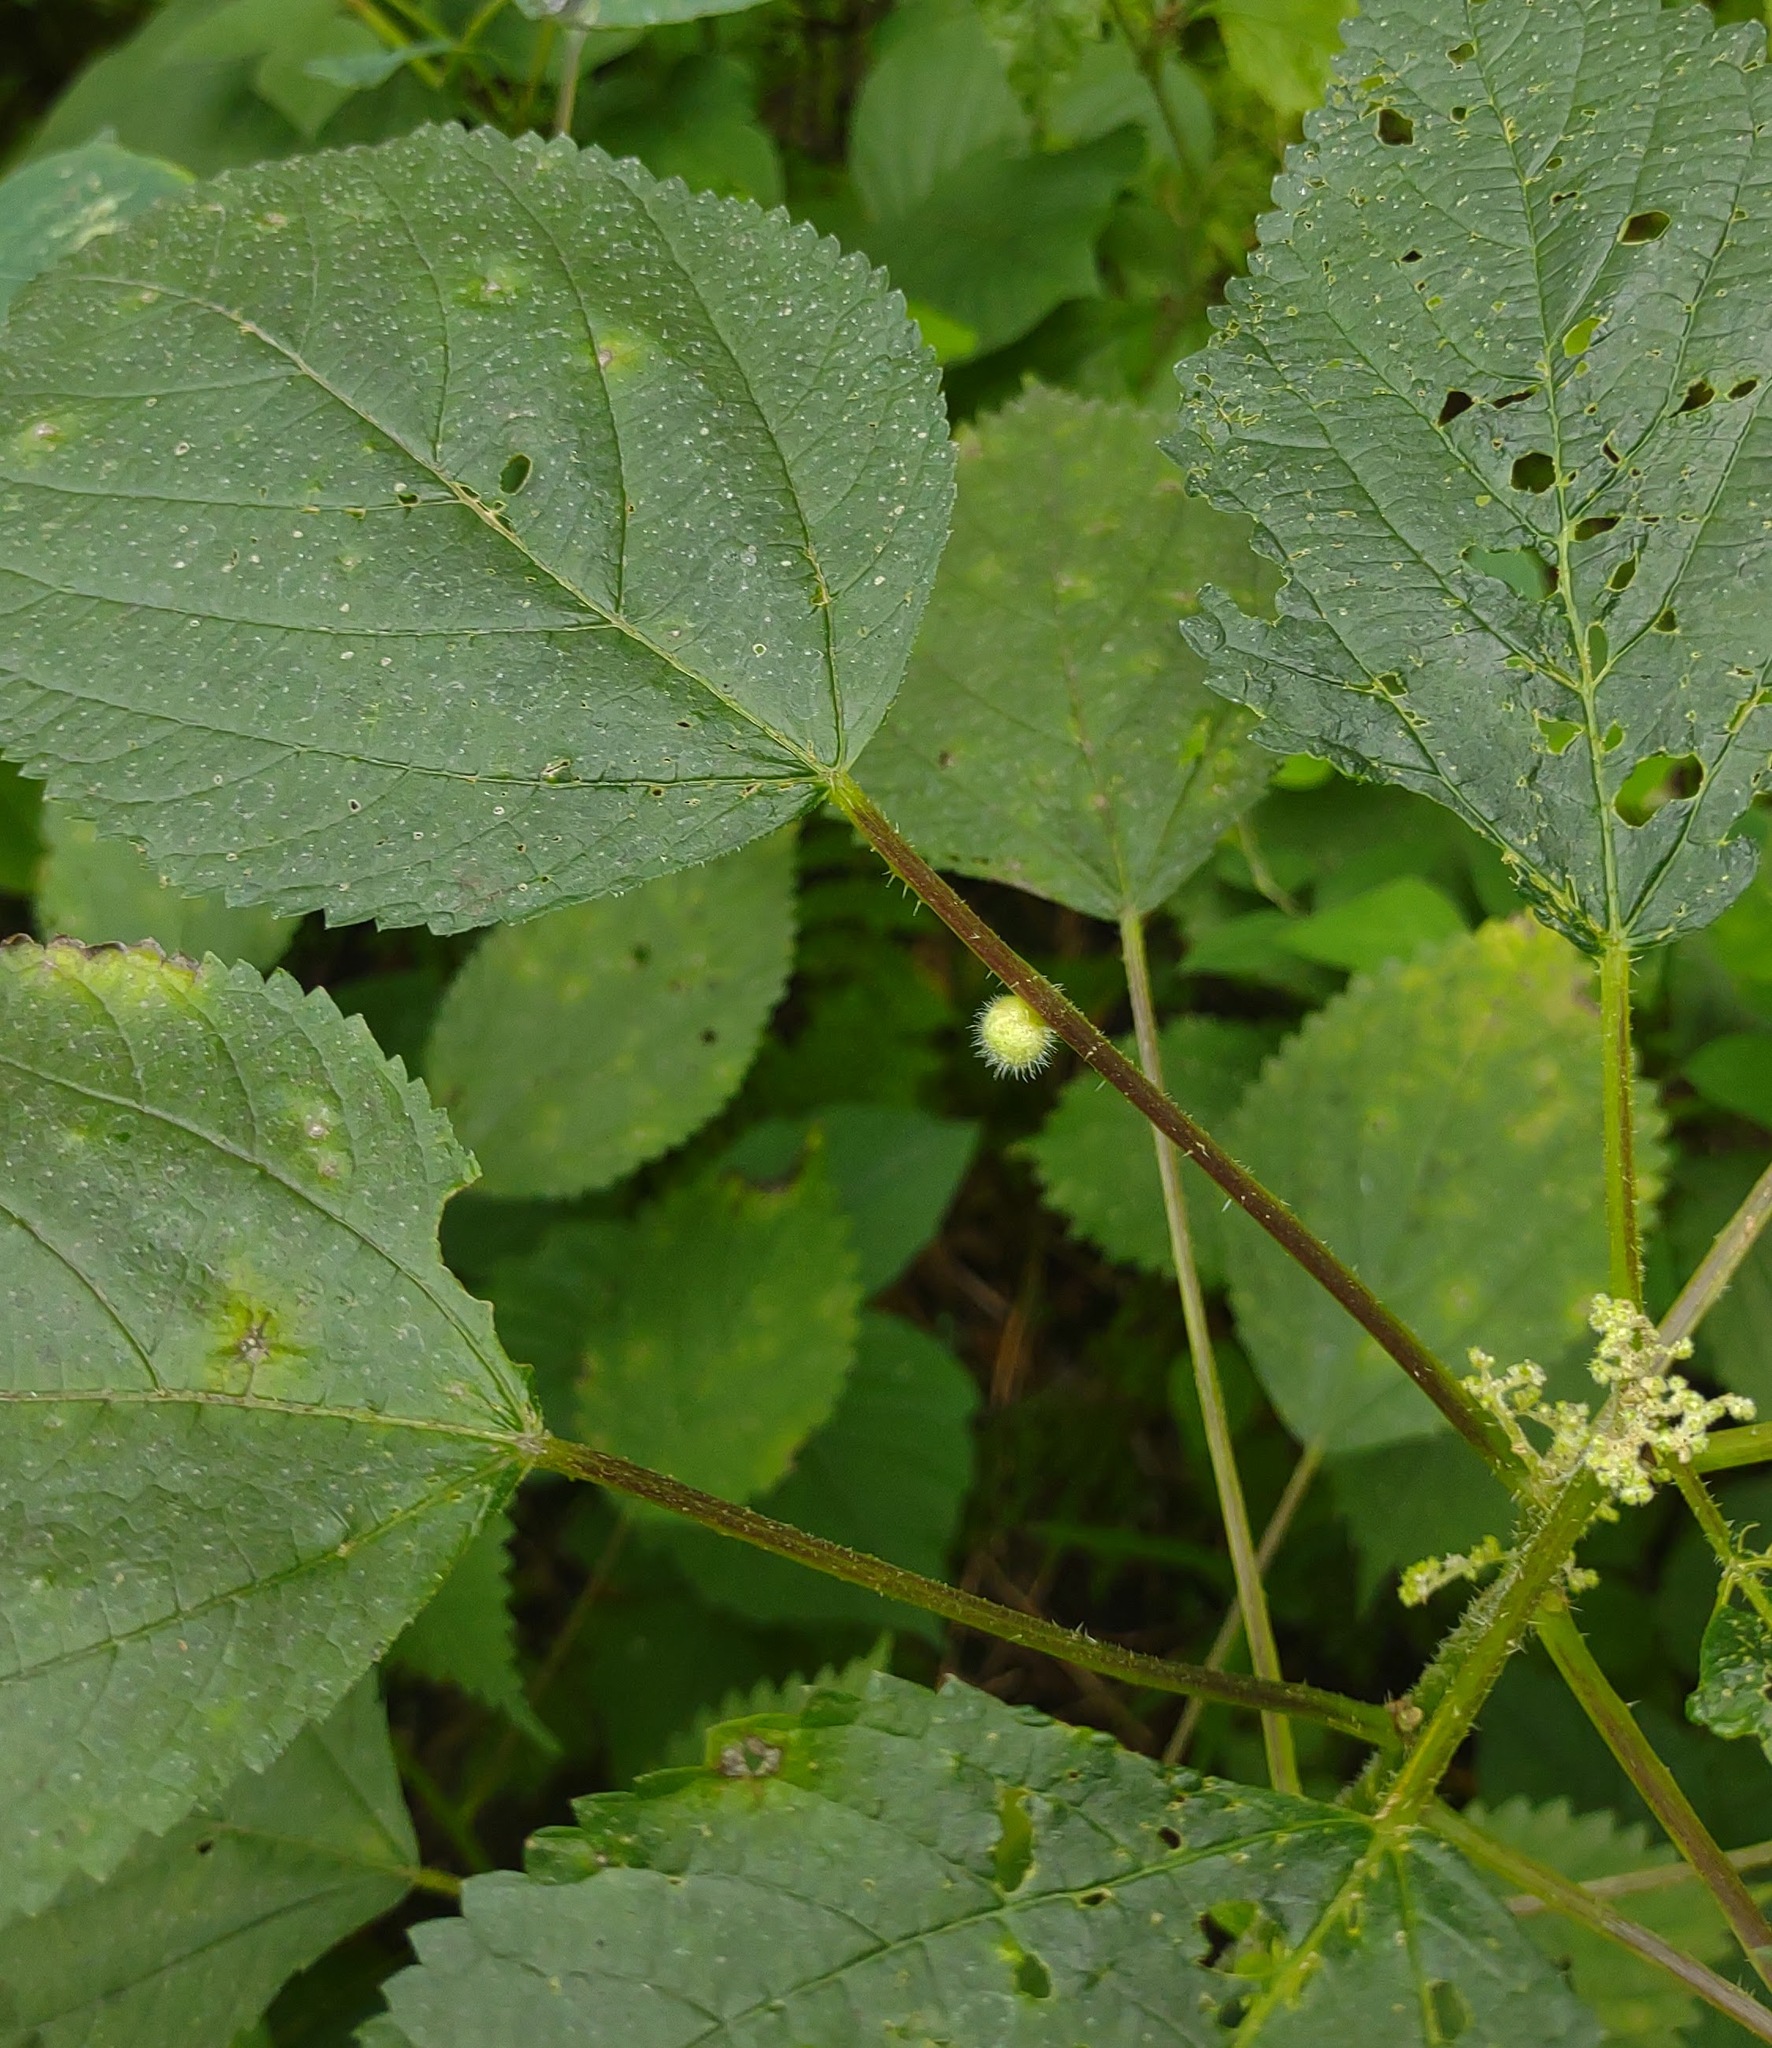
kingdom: Animalia
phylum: Arthropoda
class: Insecta
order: Diptera
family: Cecidomyiidae
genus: Dasineura
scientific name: Dasineura pilosa
